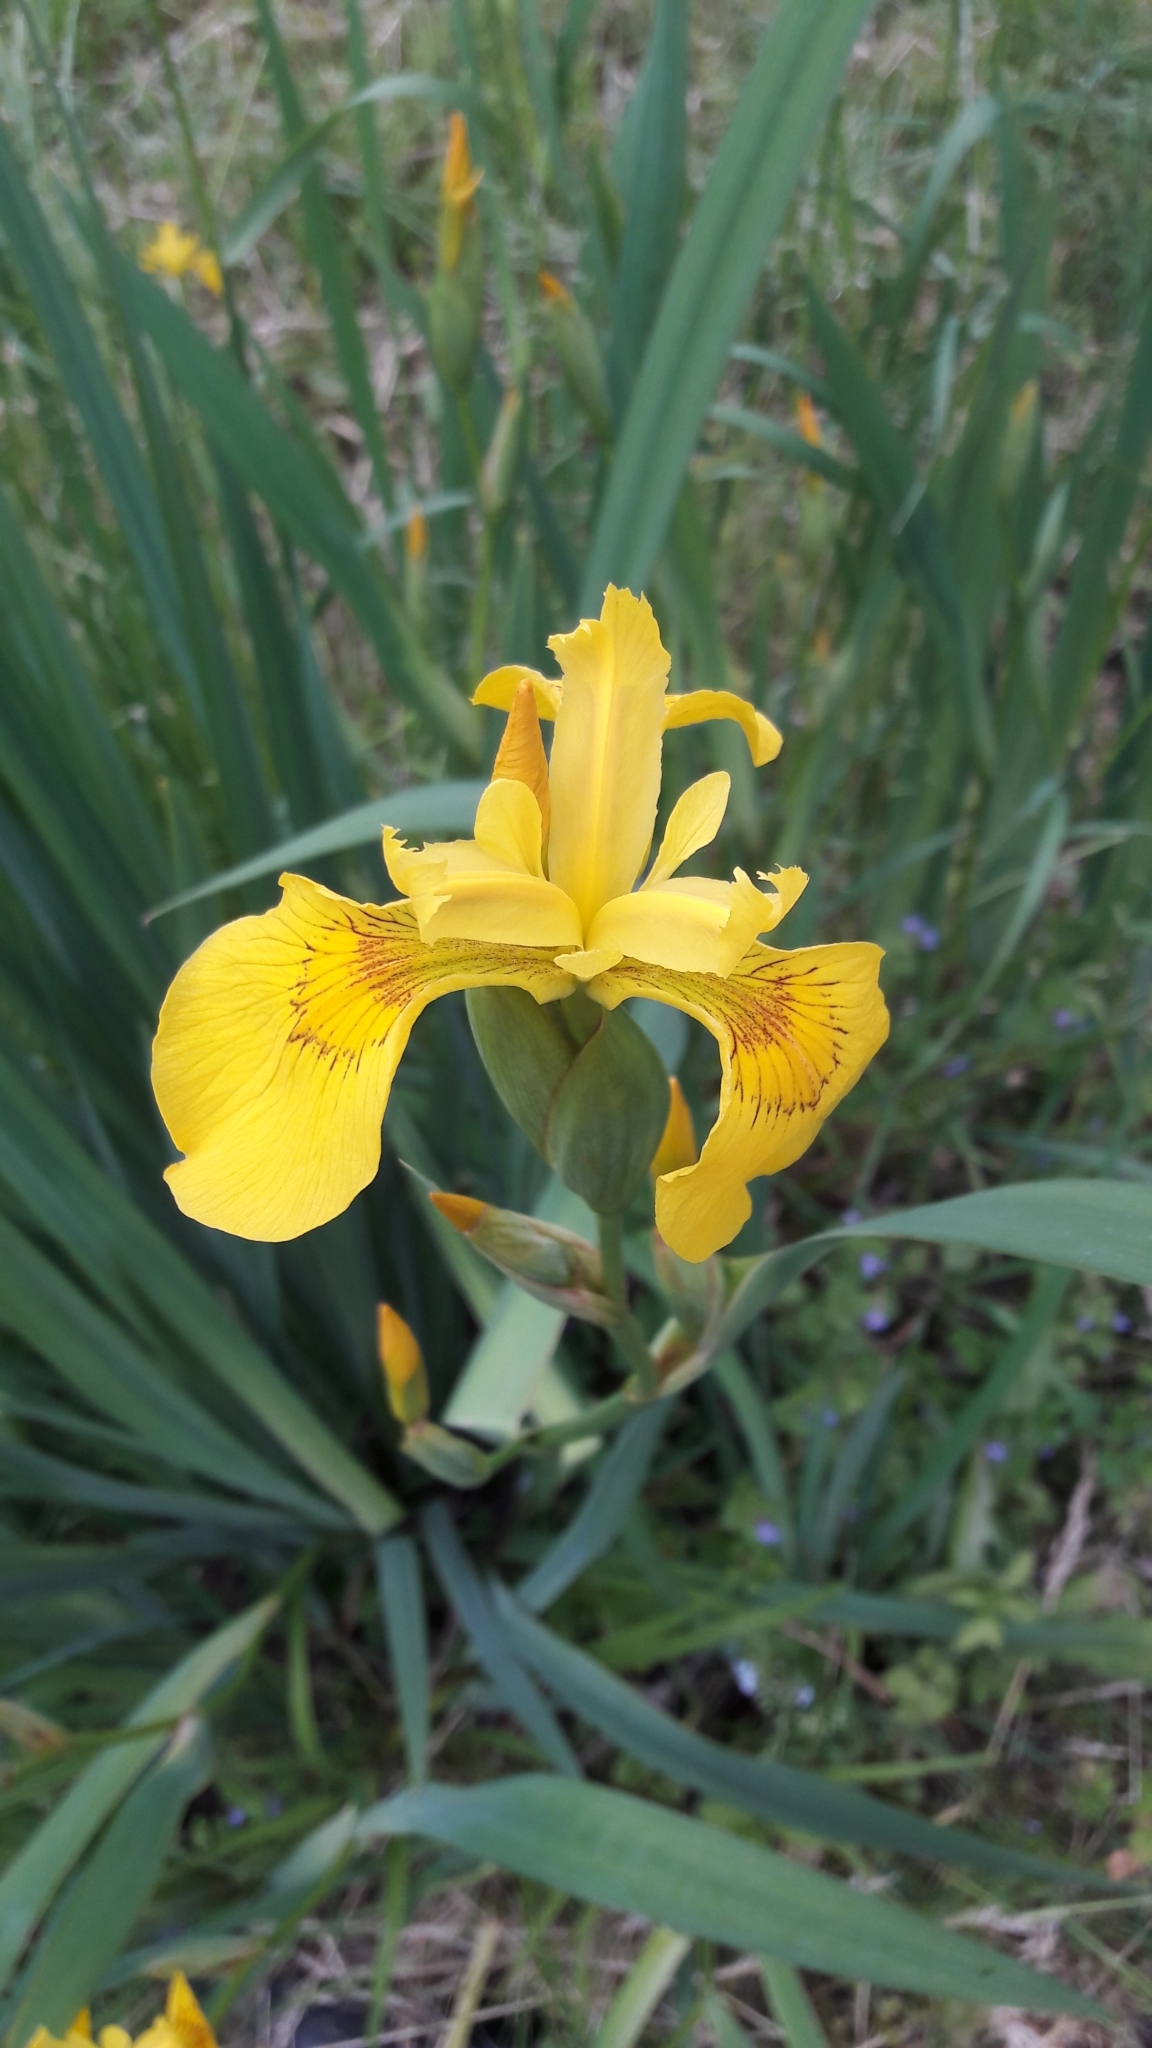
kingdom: Plantae
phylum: Tracheophyta
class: Liliopsida
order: Asparagales
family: Iridaceae
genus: Iris
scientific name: Iris pseudacorus
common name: Yellow flag
